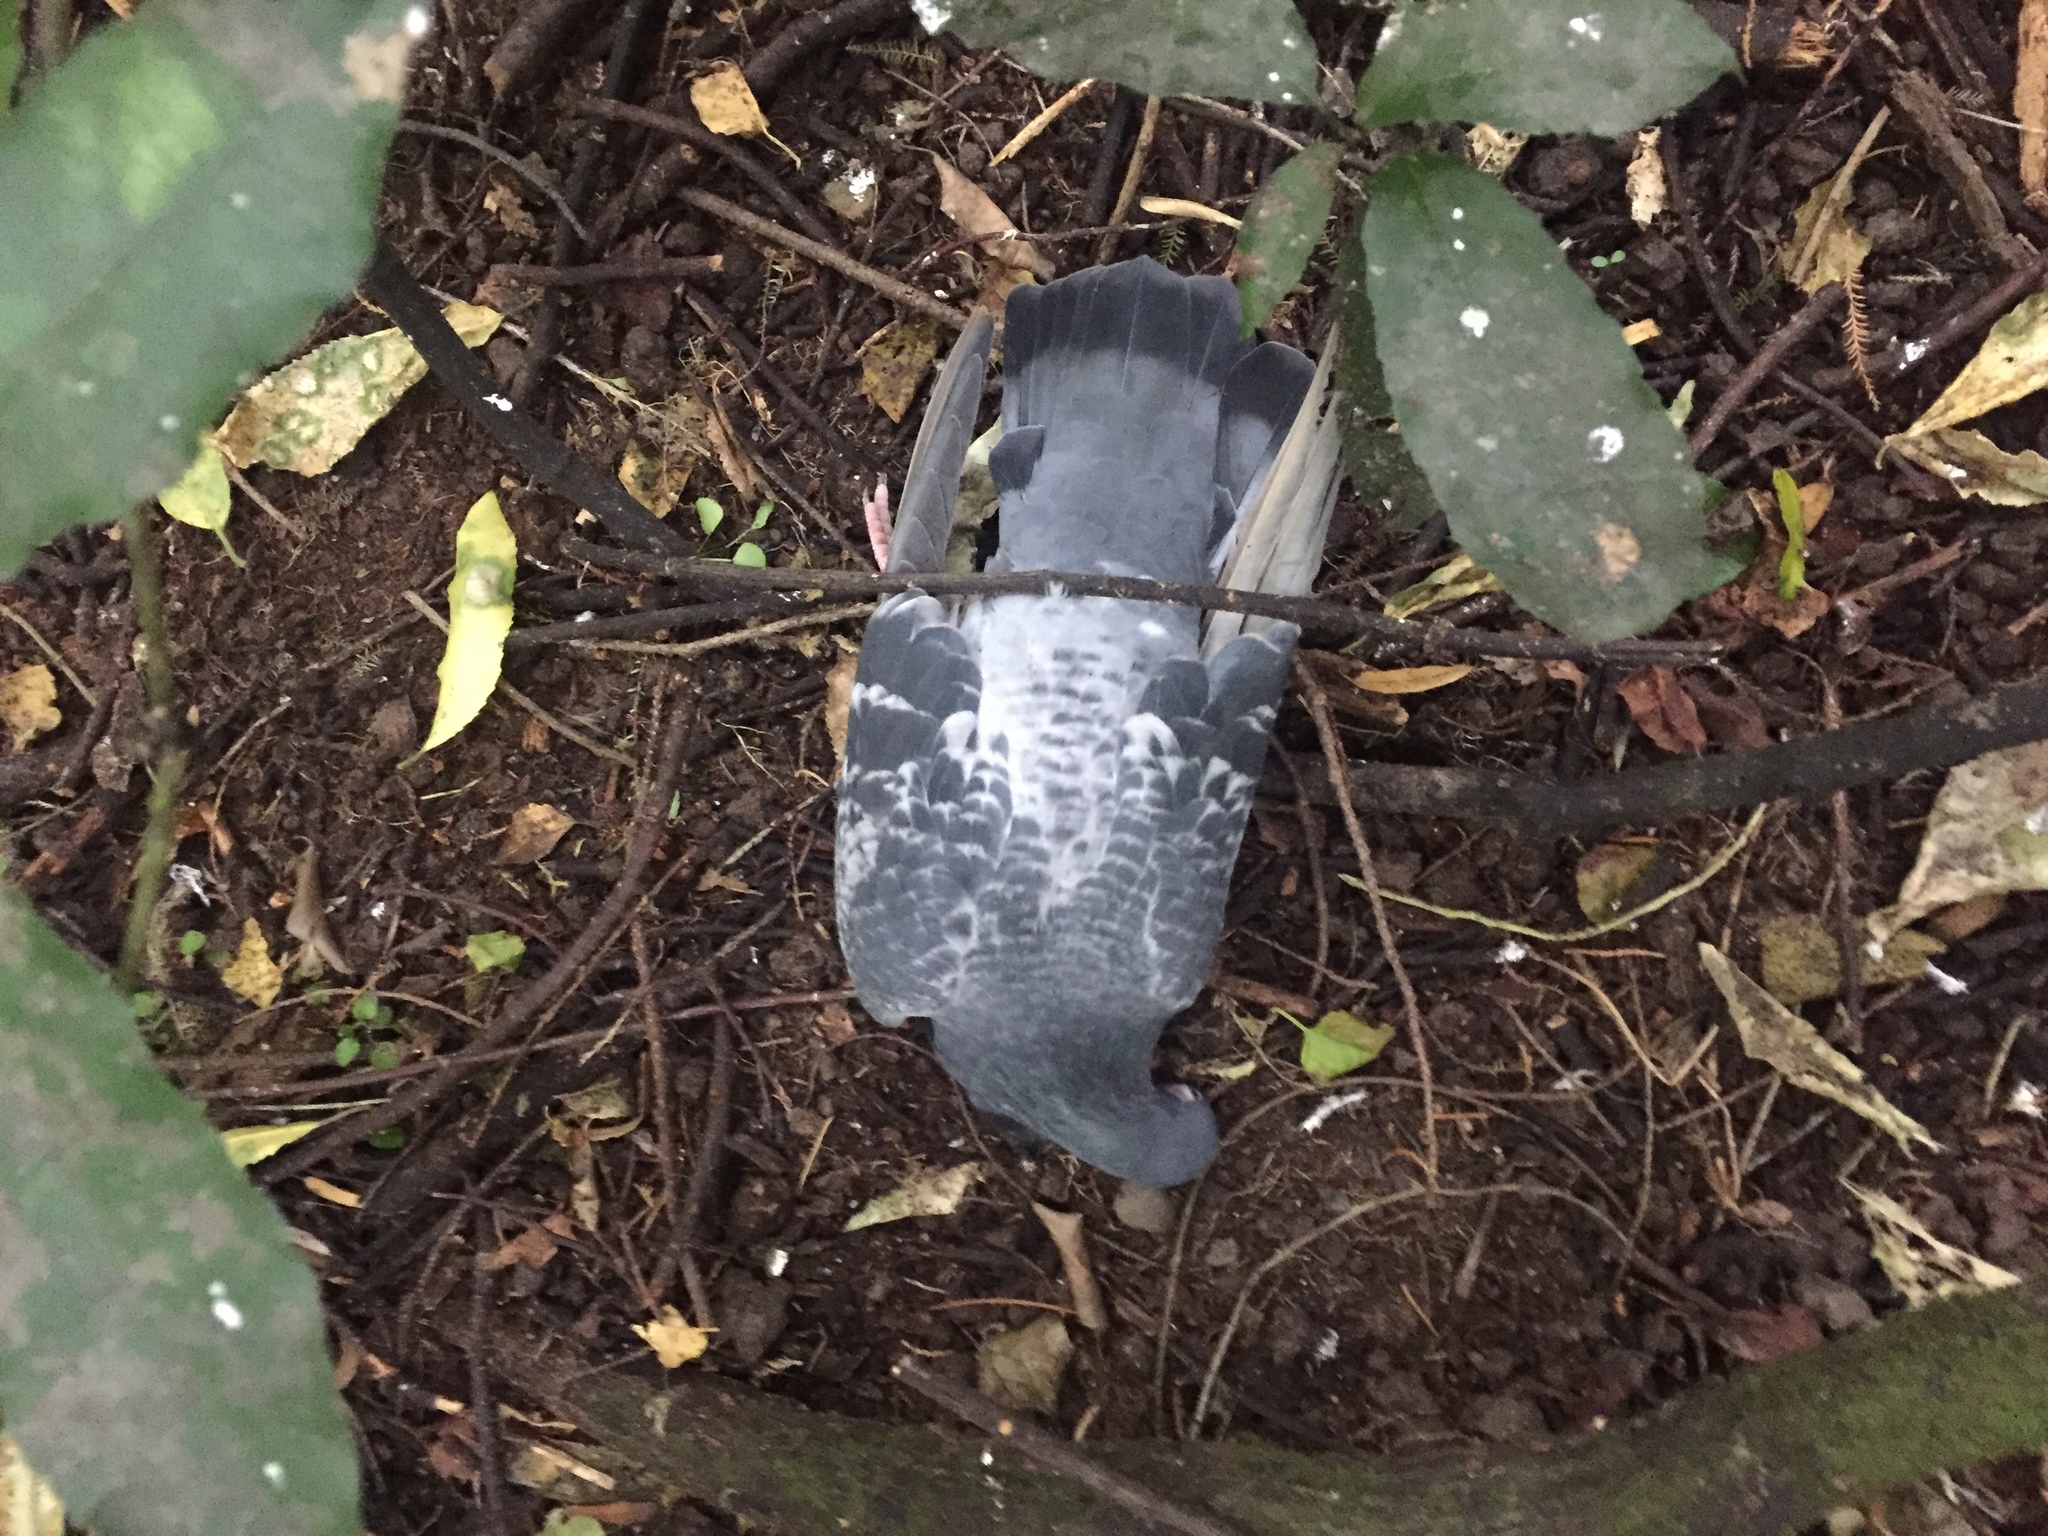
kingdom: Animalia
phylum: Chordata
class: Aves
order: Columbiformes
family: Columbidae
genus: Columba
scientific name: Columba livia
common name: Rock pigeon
